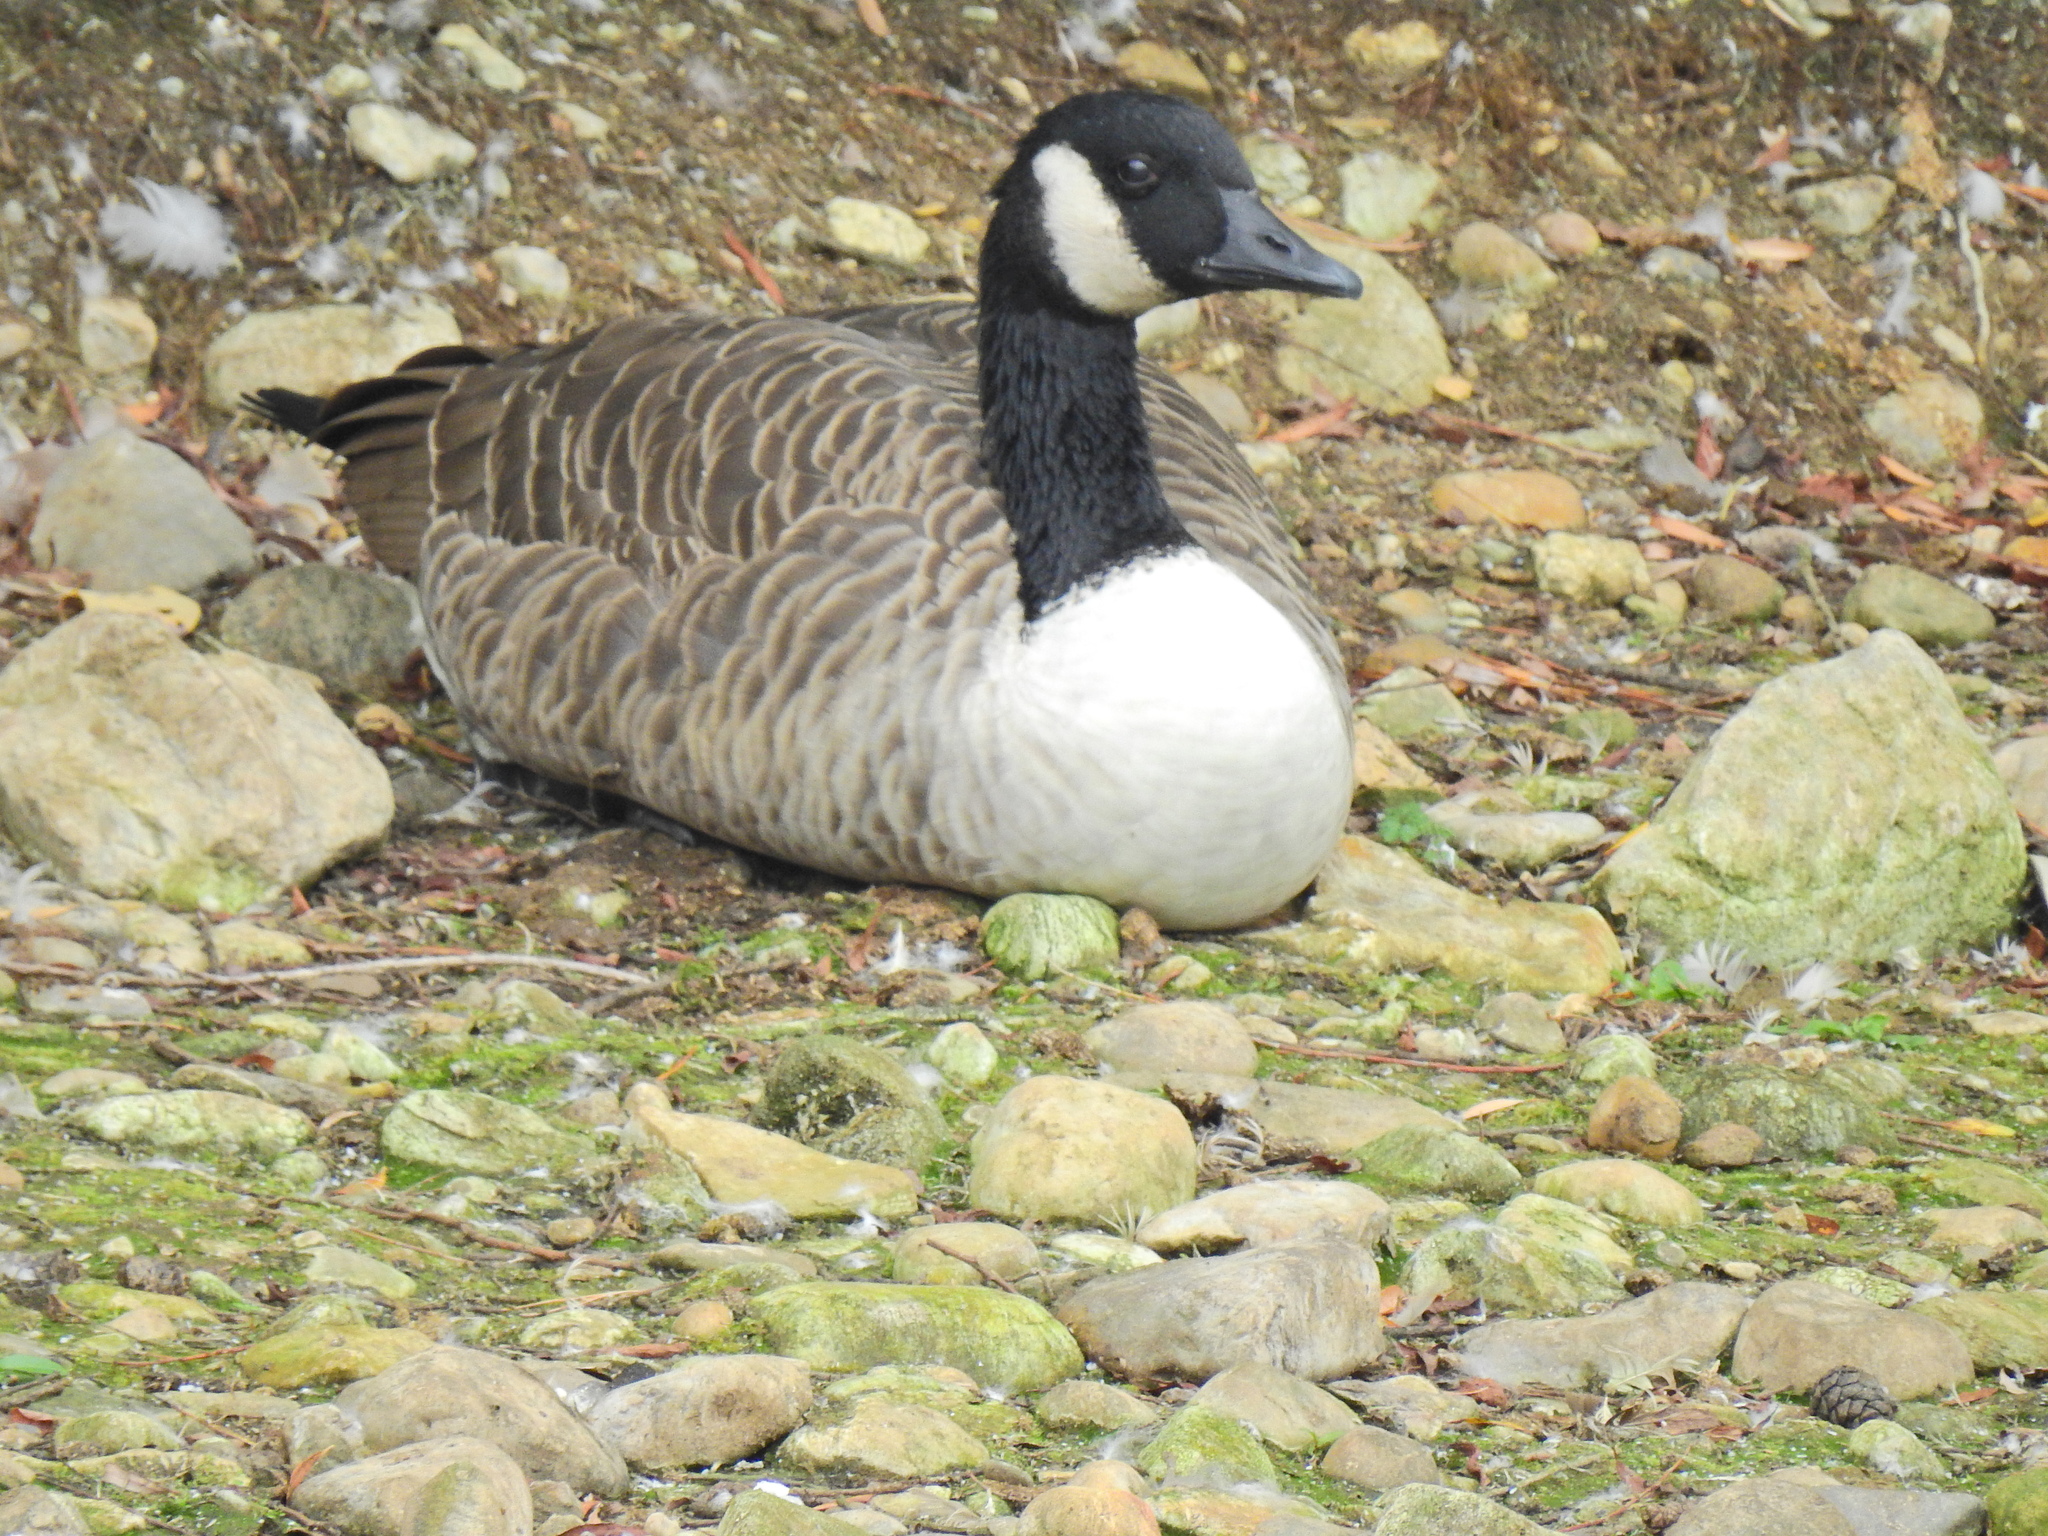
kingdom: Animalia
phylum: Chordata
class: Aves
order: Anseriformes
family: Anatidae
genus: Branta
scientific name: Branta canadensis
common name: Canada goose
